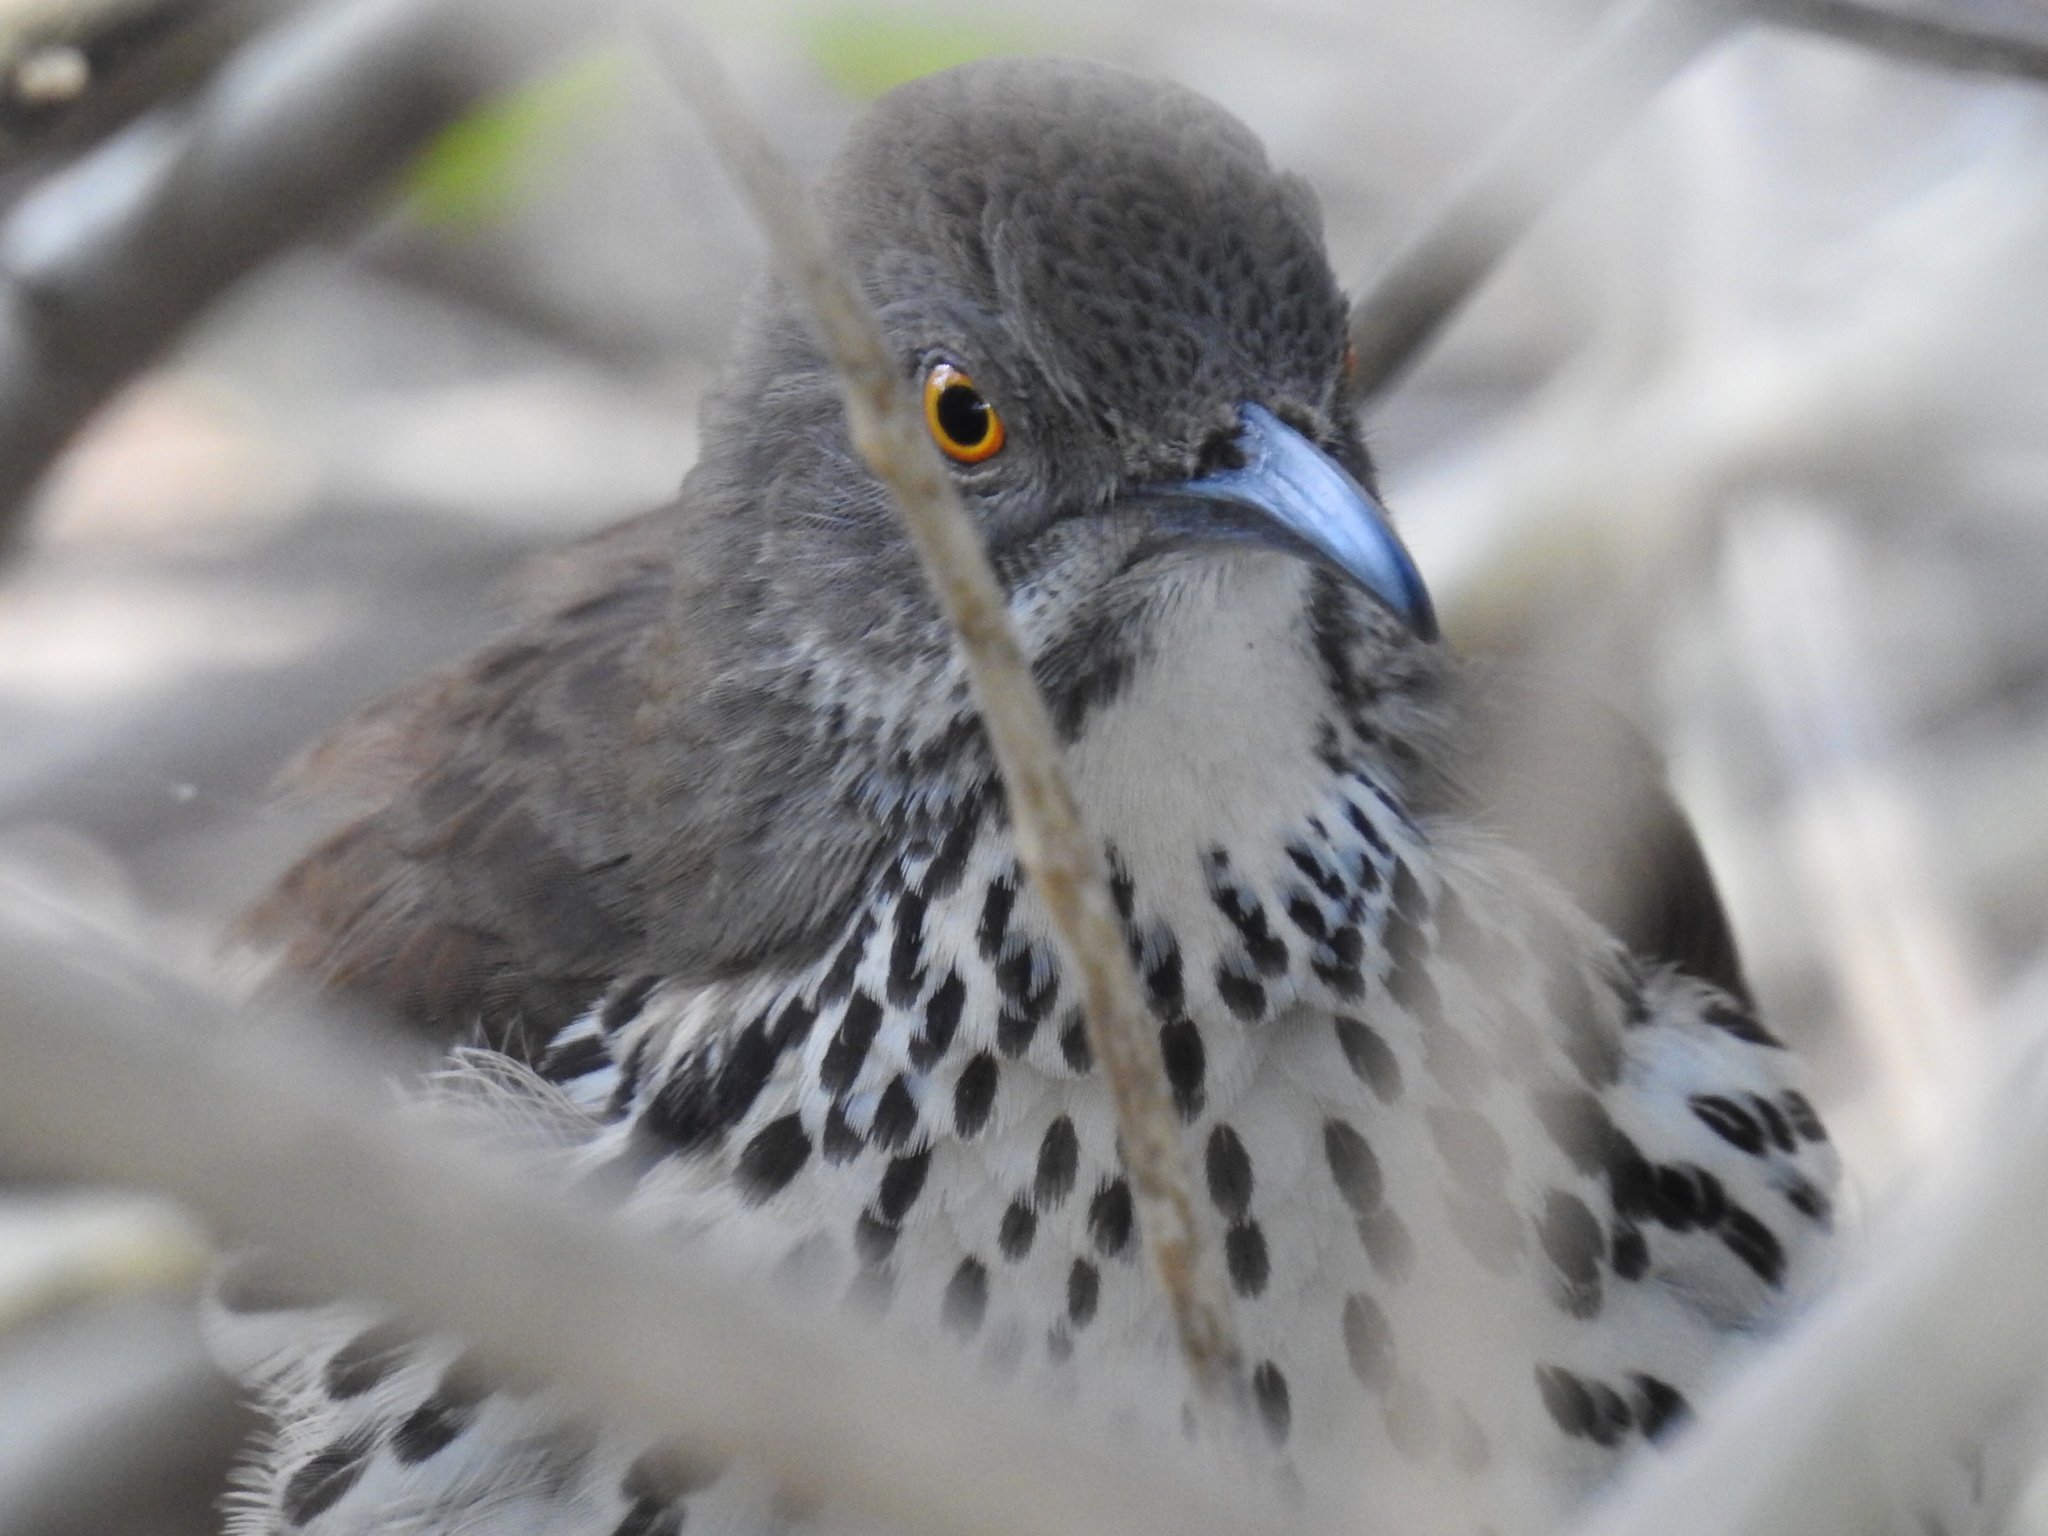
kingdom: Animalia
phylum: Chordata
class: Aves
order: Passeriformes
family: Mimidae
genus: Toxostoma
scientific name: Toxostoma longirostre
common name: Long-billed thrasher
